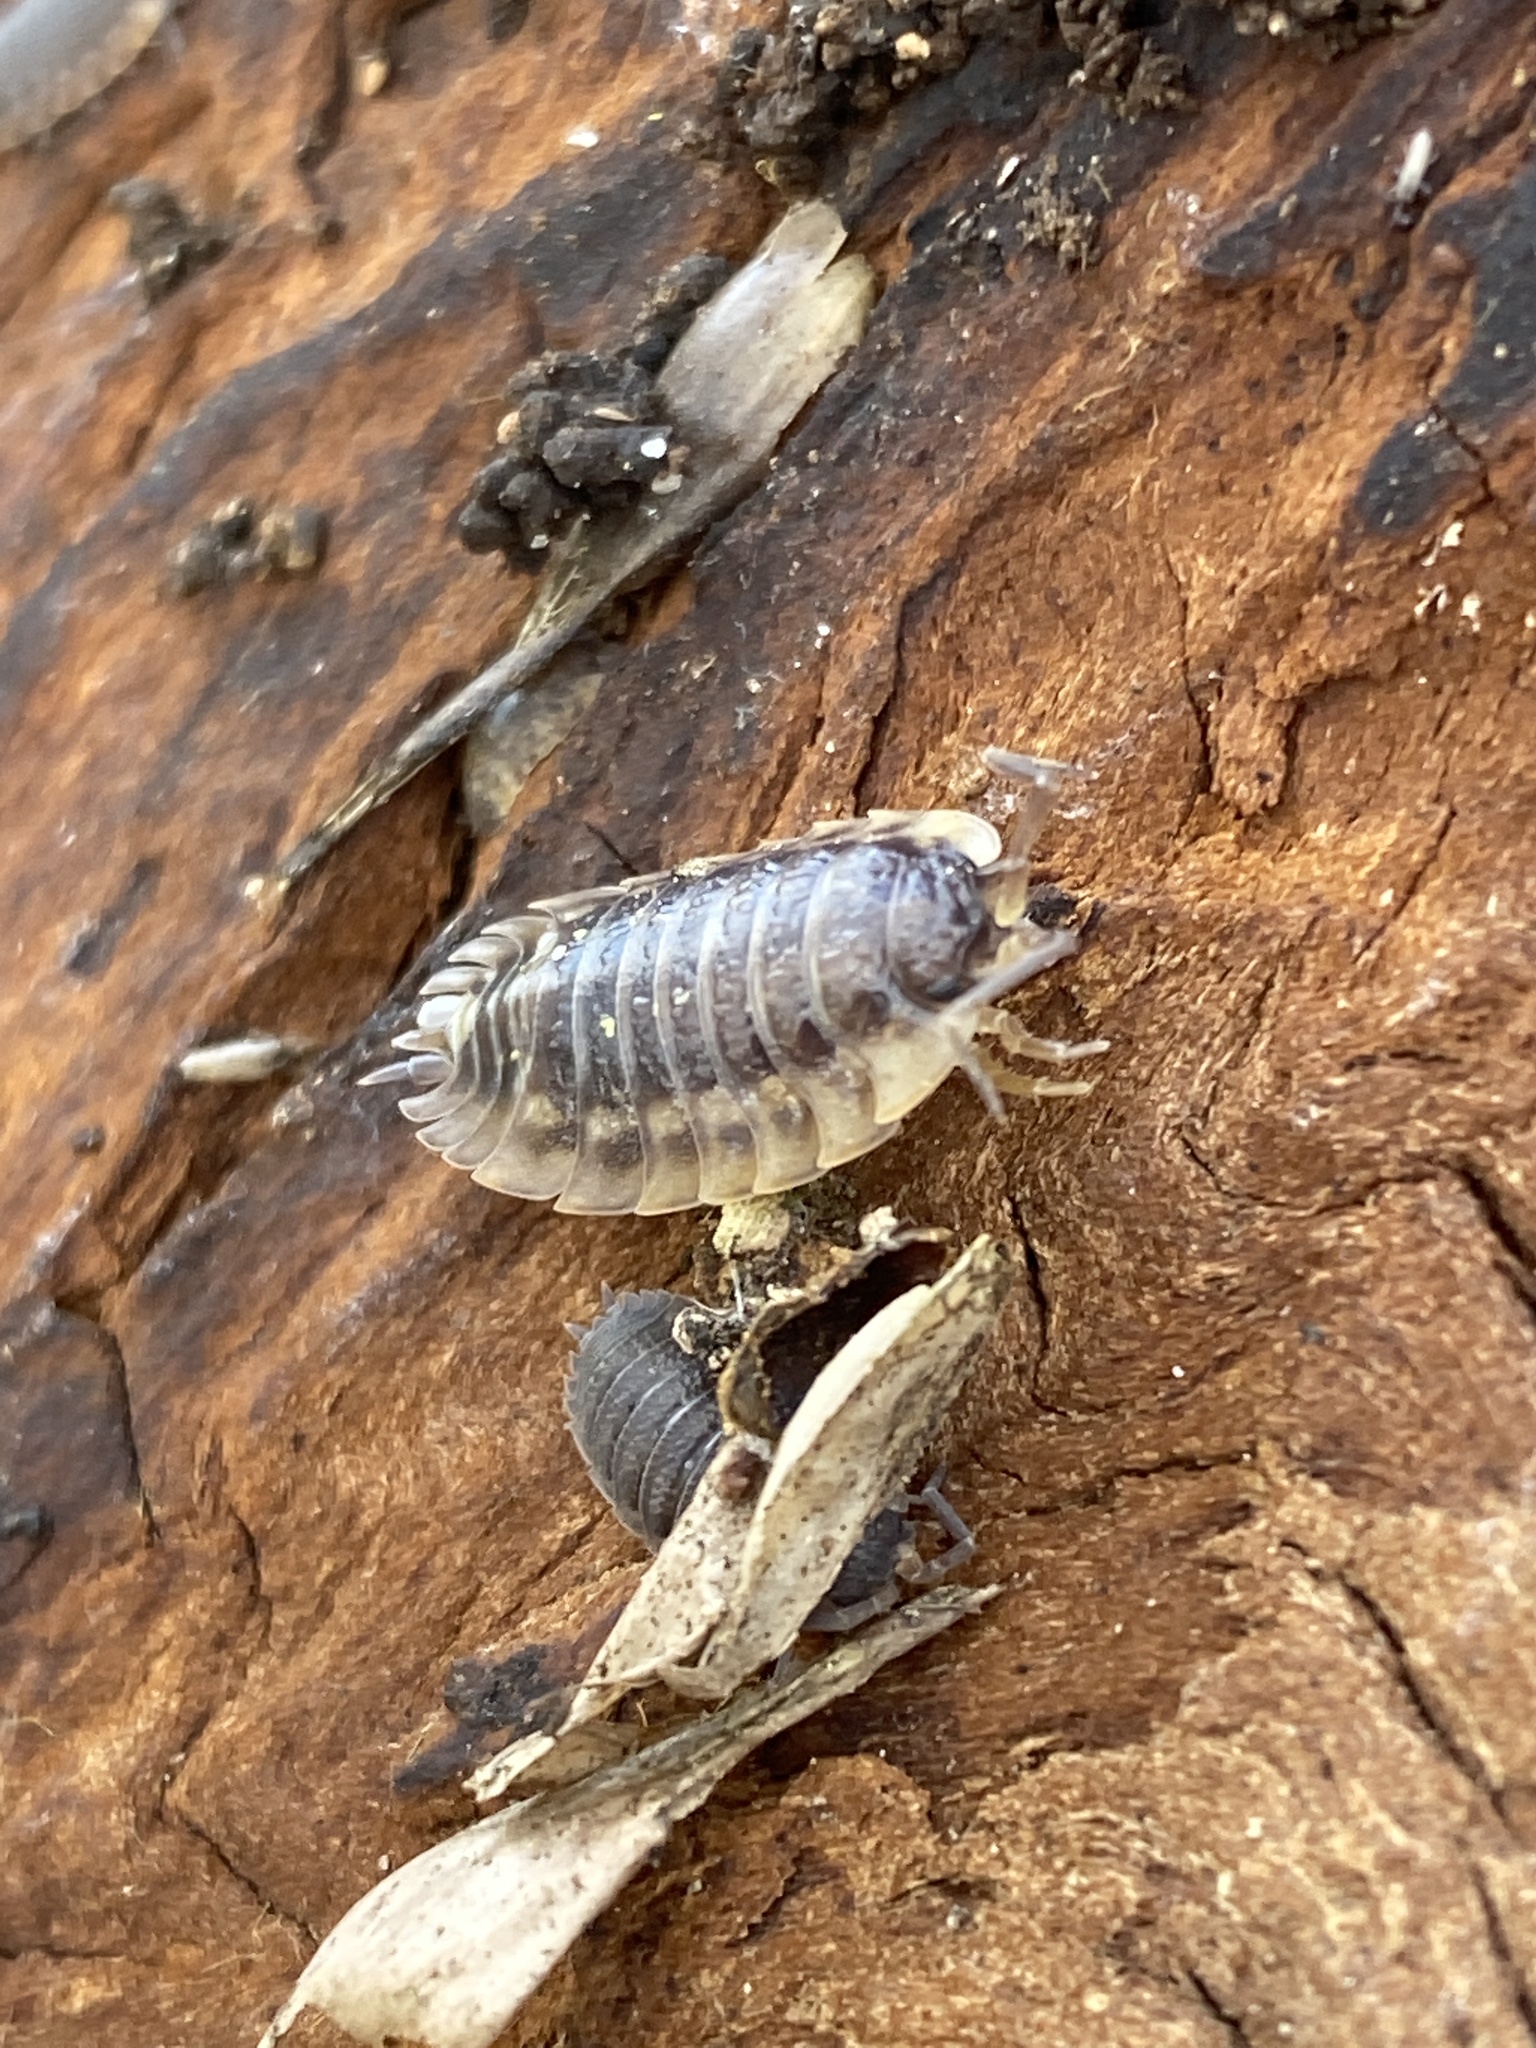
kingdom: Animalia
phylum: Arthropoda
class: Malacostraca
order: Isopoda
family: Oniscidae
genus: Oniscus
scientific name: Oniscus asellus
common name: Common shiny woodlouse
